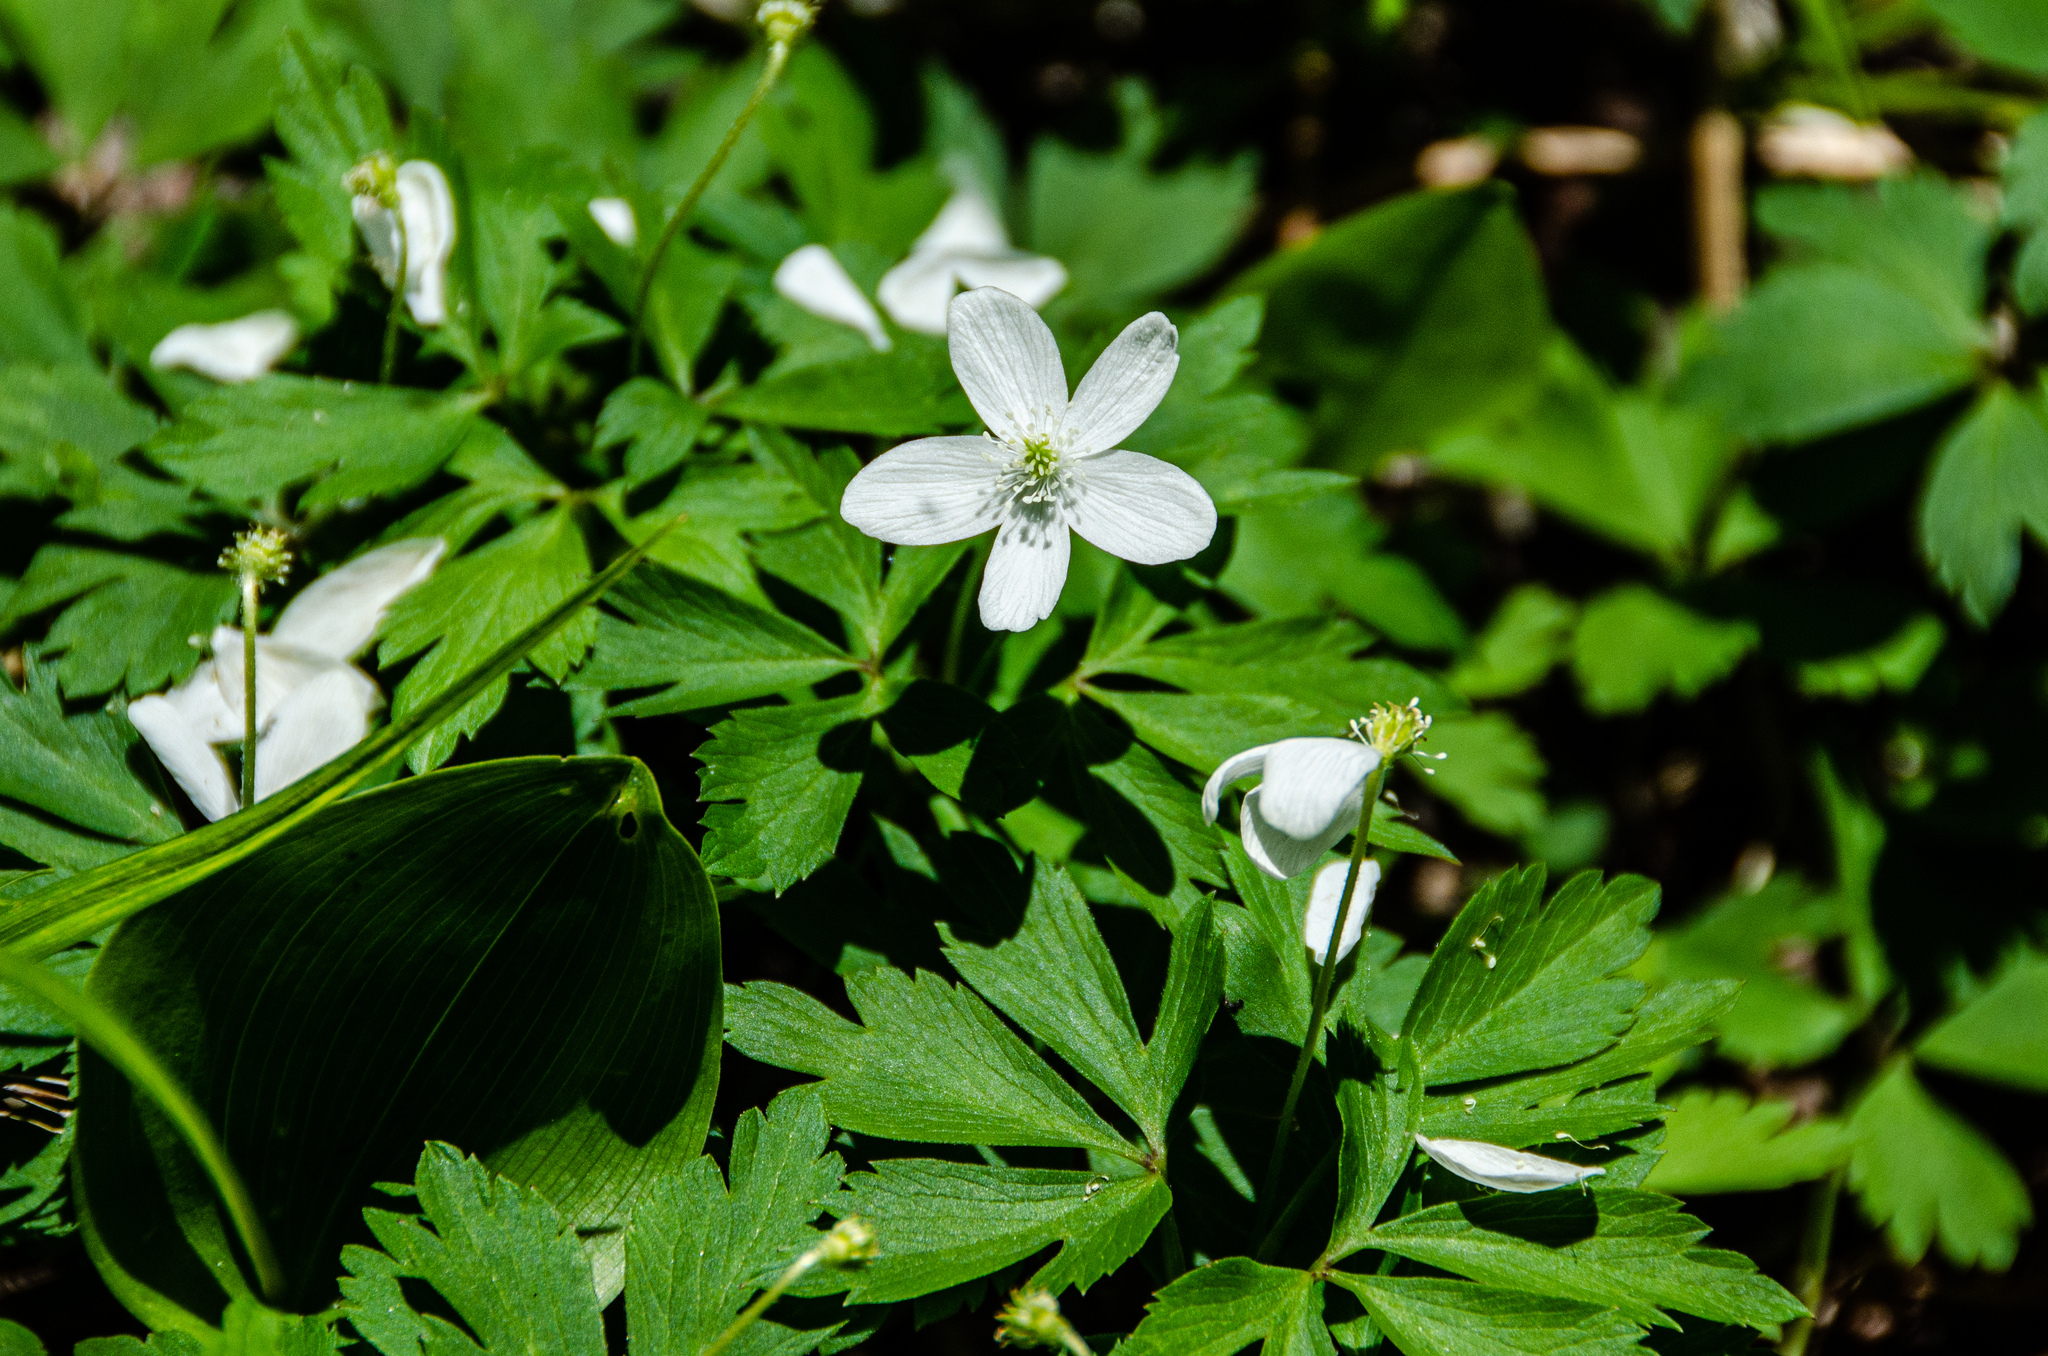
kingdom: Plantae
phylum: Tracheophyta
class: Magnoliopsida
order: Ranunculales
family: Ranunculaceae
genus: Anemone
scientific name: Anemone quinquefolia
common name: Wood anemone
